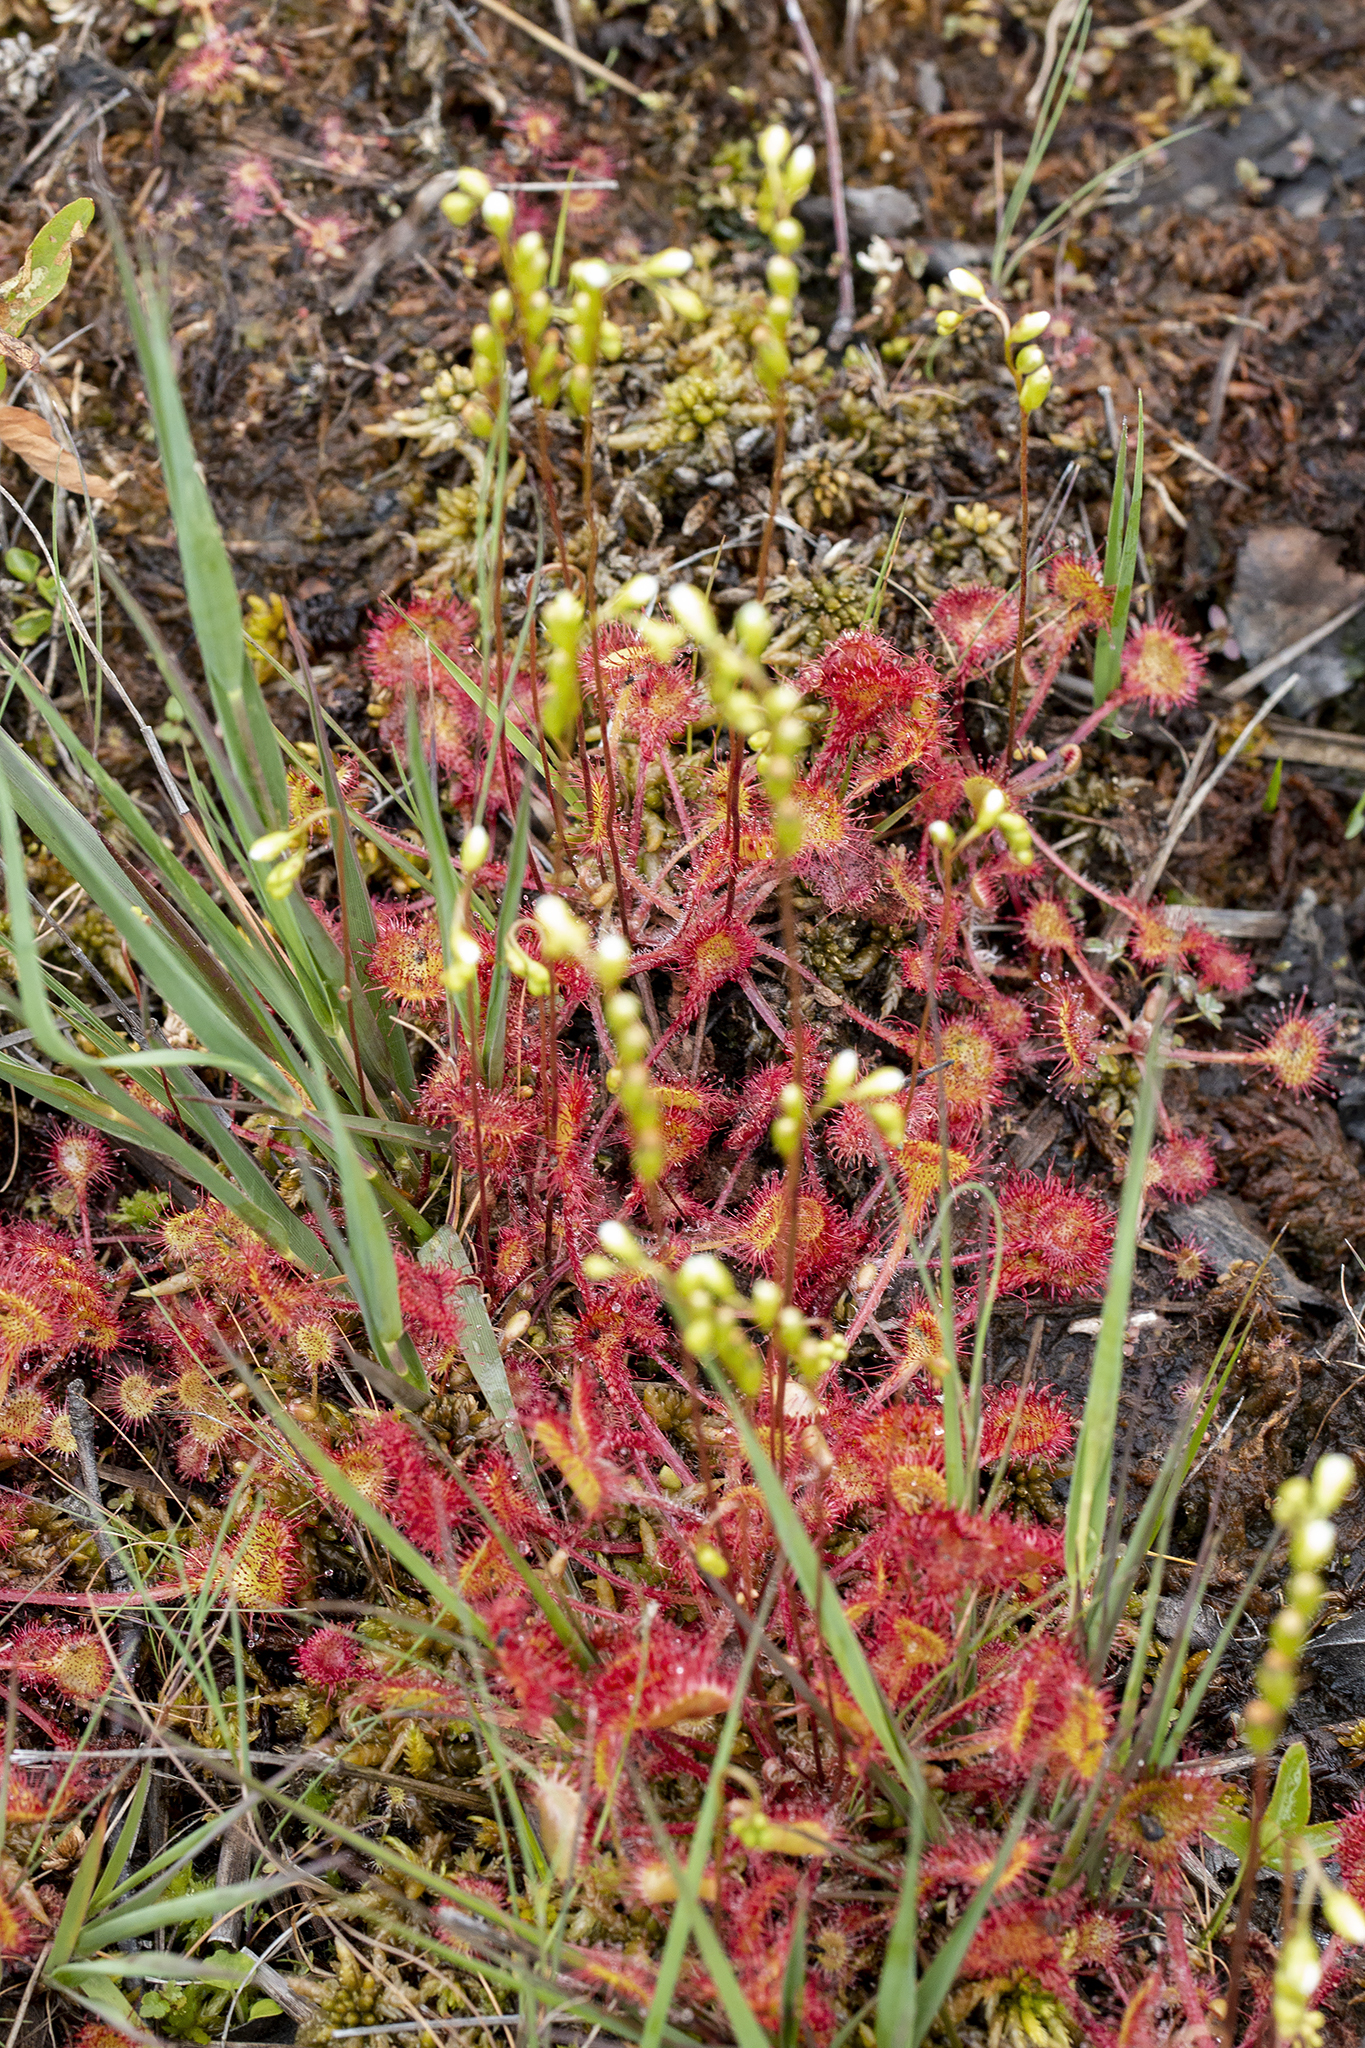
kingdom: Plantae
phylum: Tracheophyta
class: Magnoliopsida
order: Caryophyllales
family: Droseraceae
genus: Drosera
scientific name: Drosera rotundifolia
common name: Round-leaved sundew
